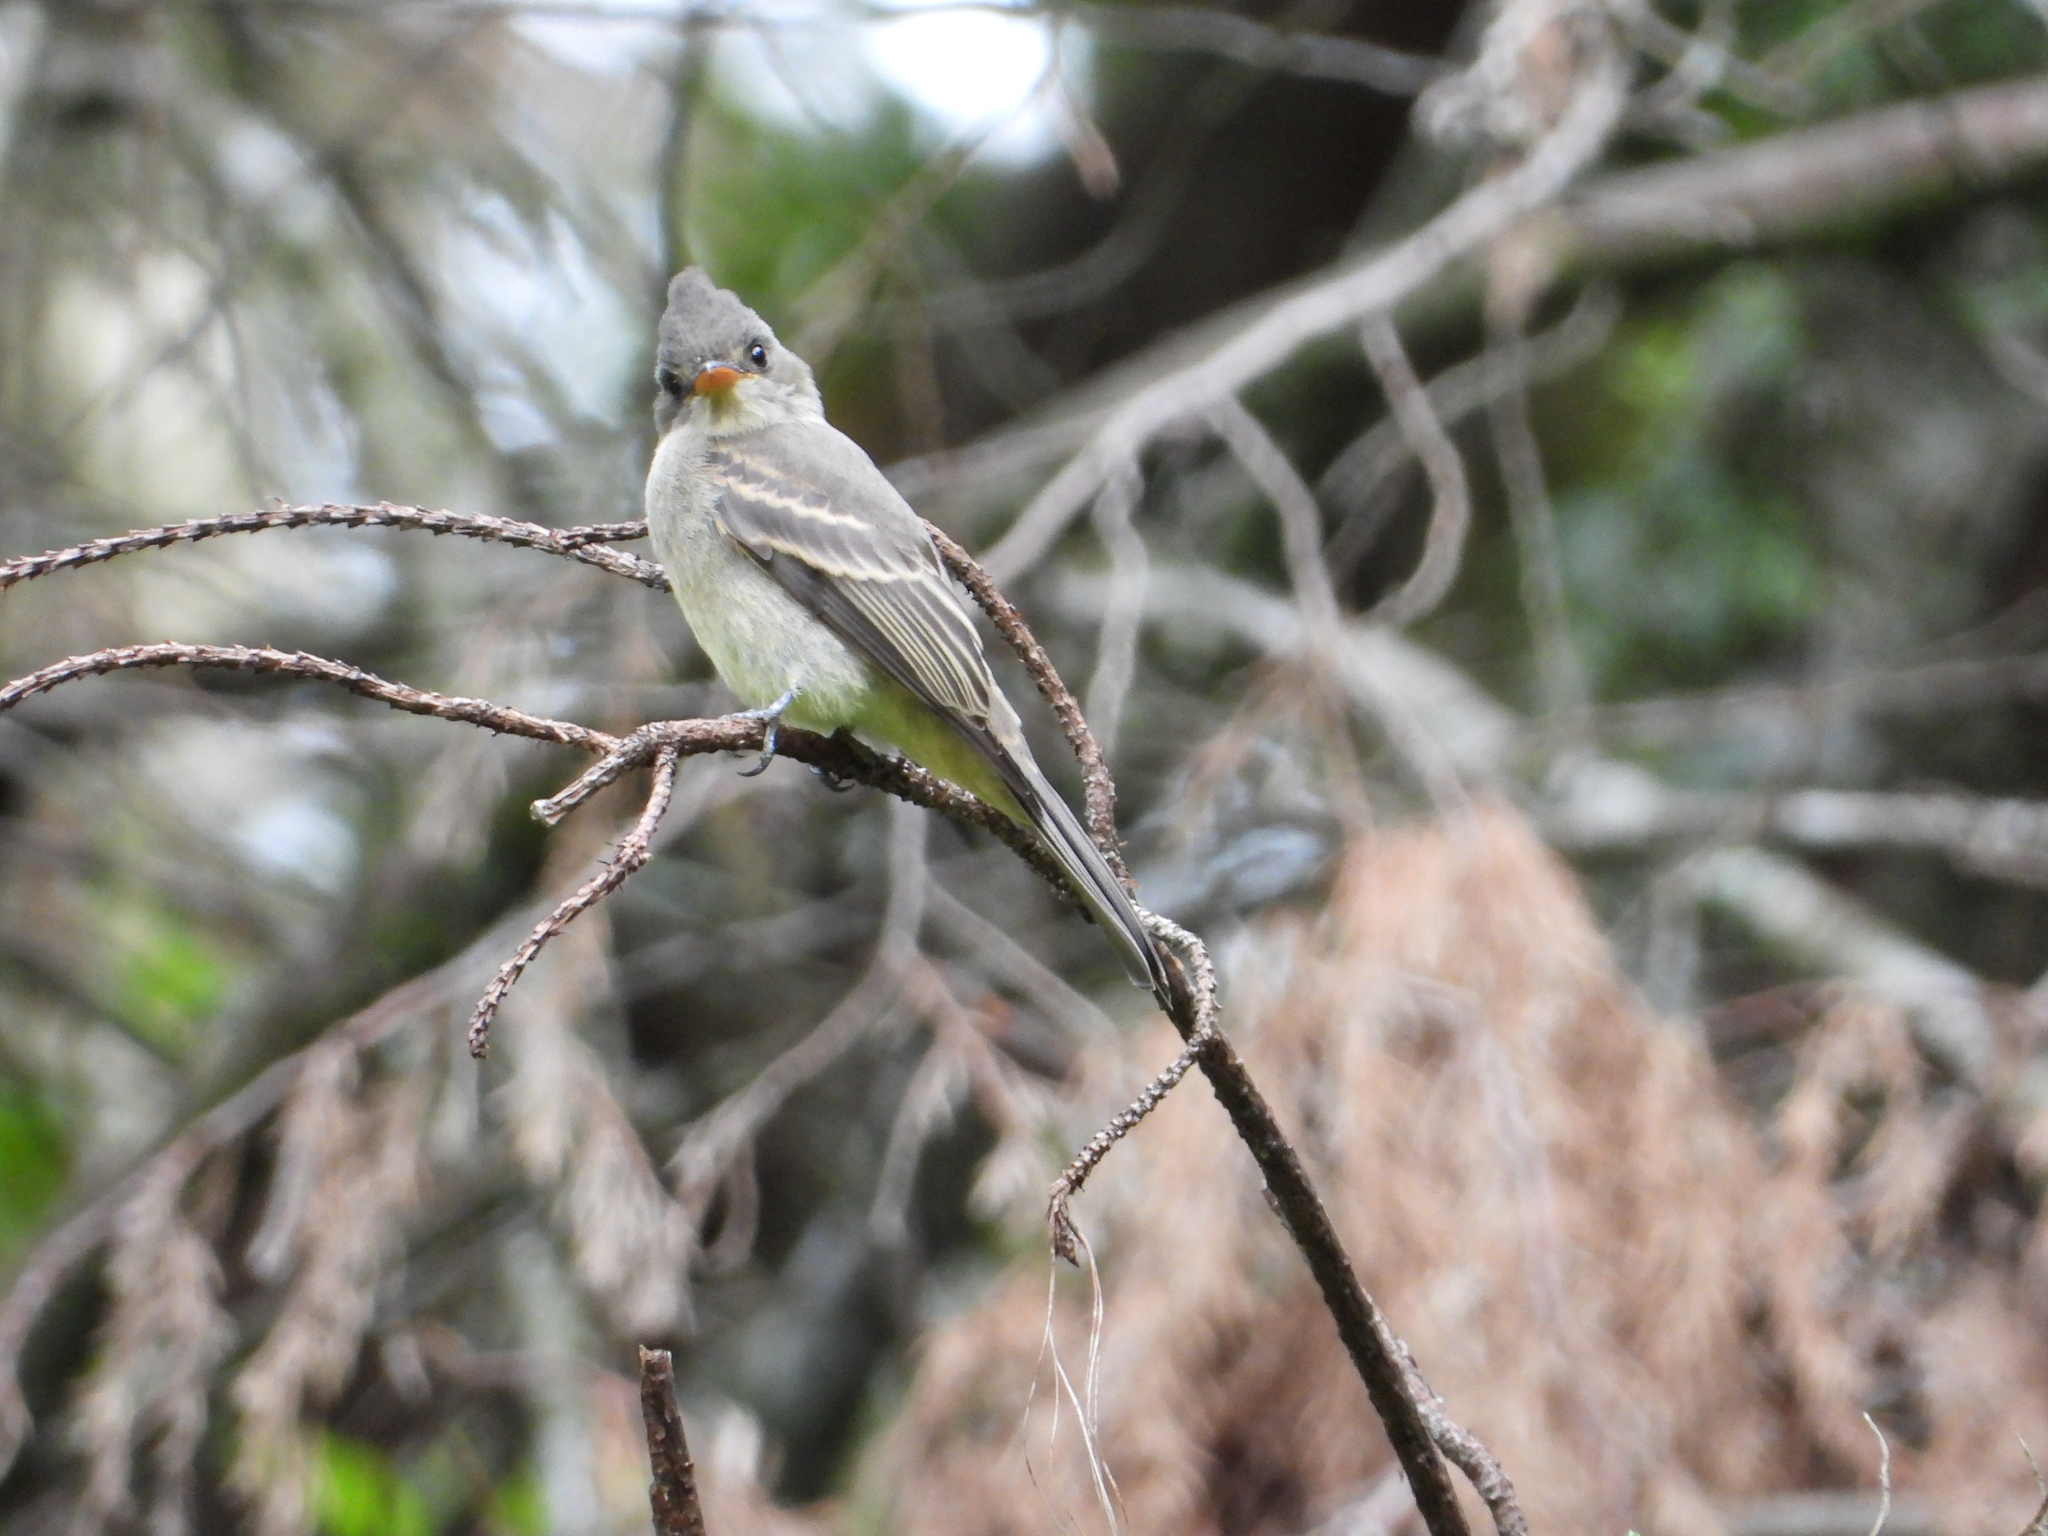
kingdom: Animalia
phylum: Chordata
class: Aves
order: Passeriformes
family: Tyrannidae
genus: Contopus
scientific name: Contopus pertinax
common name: Greater pewee
